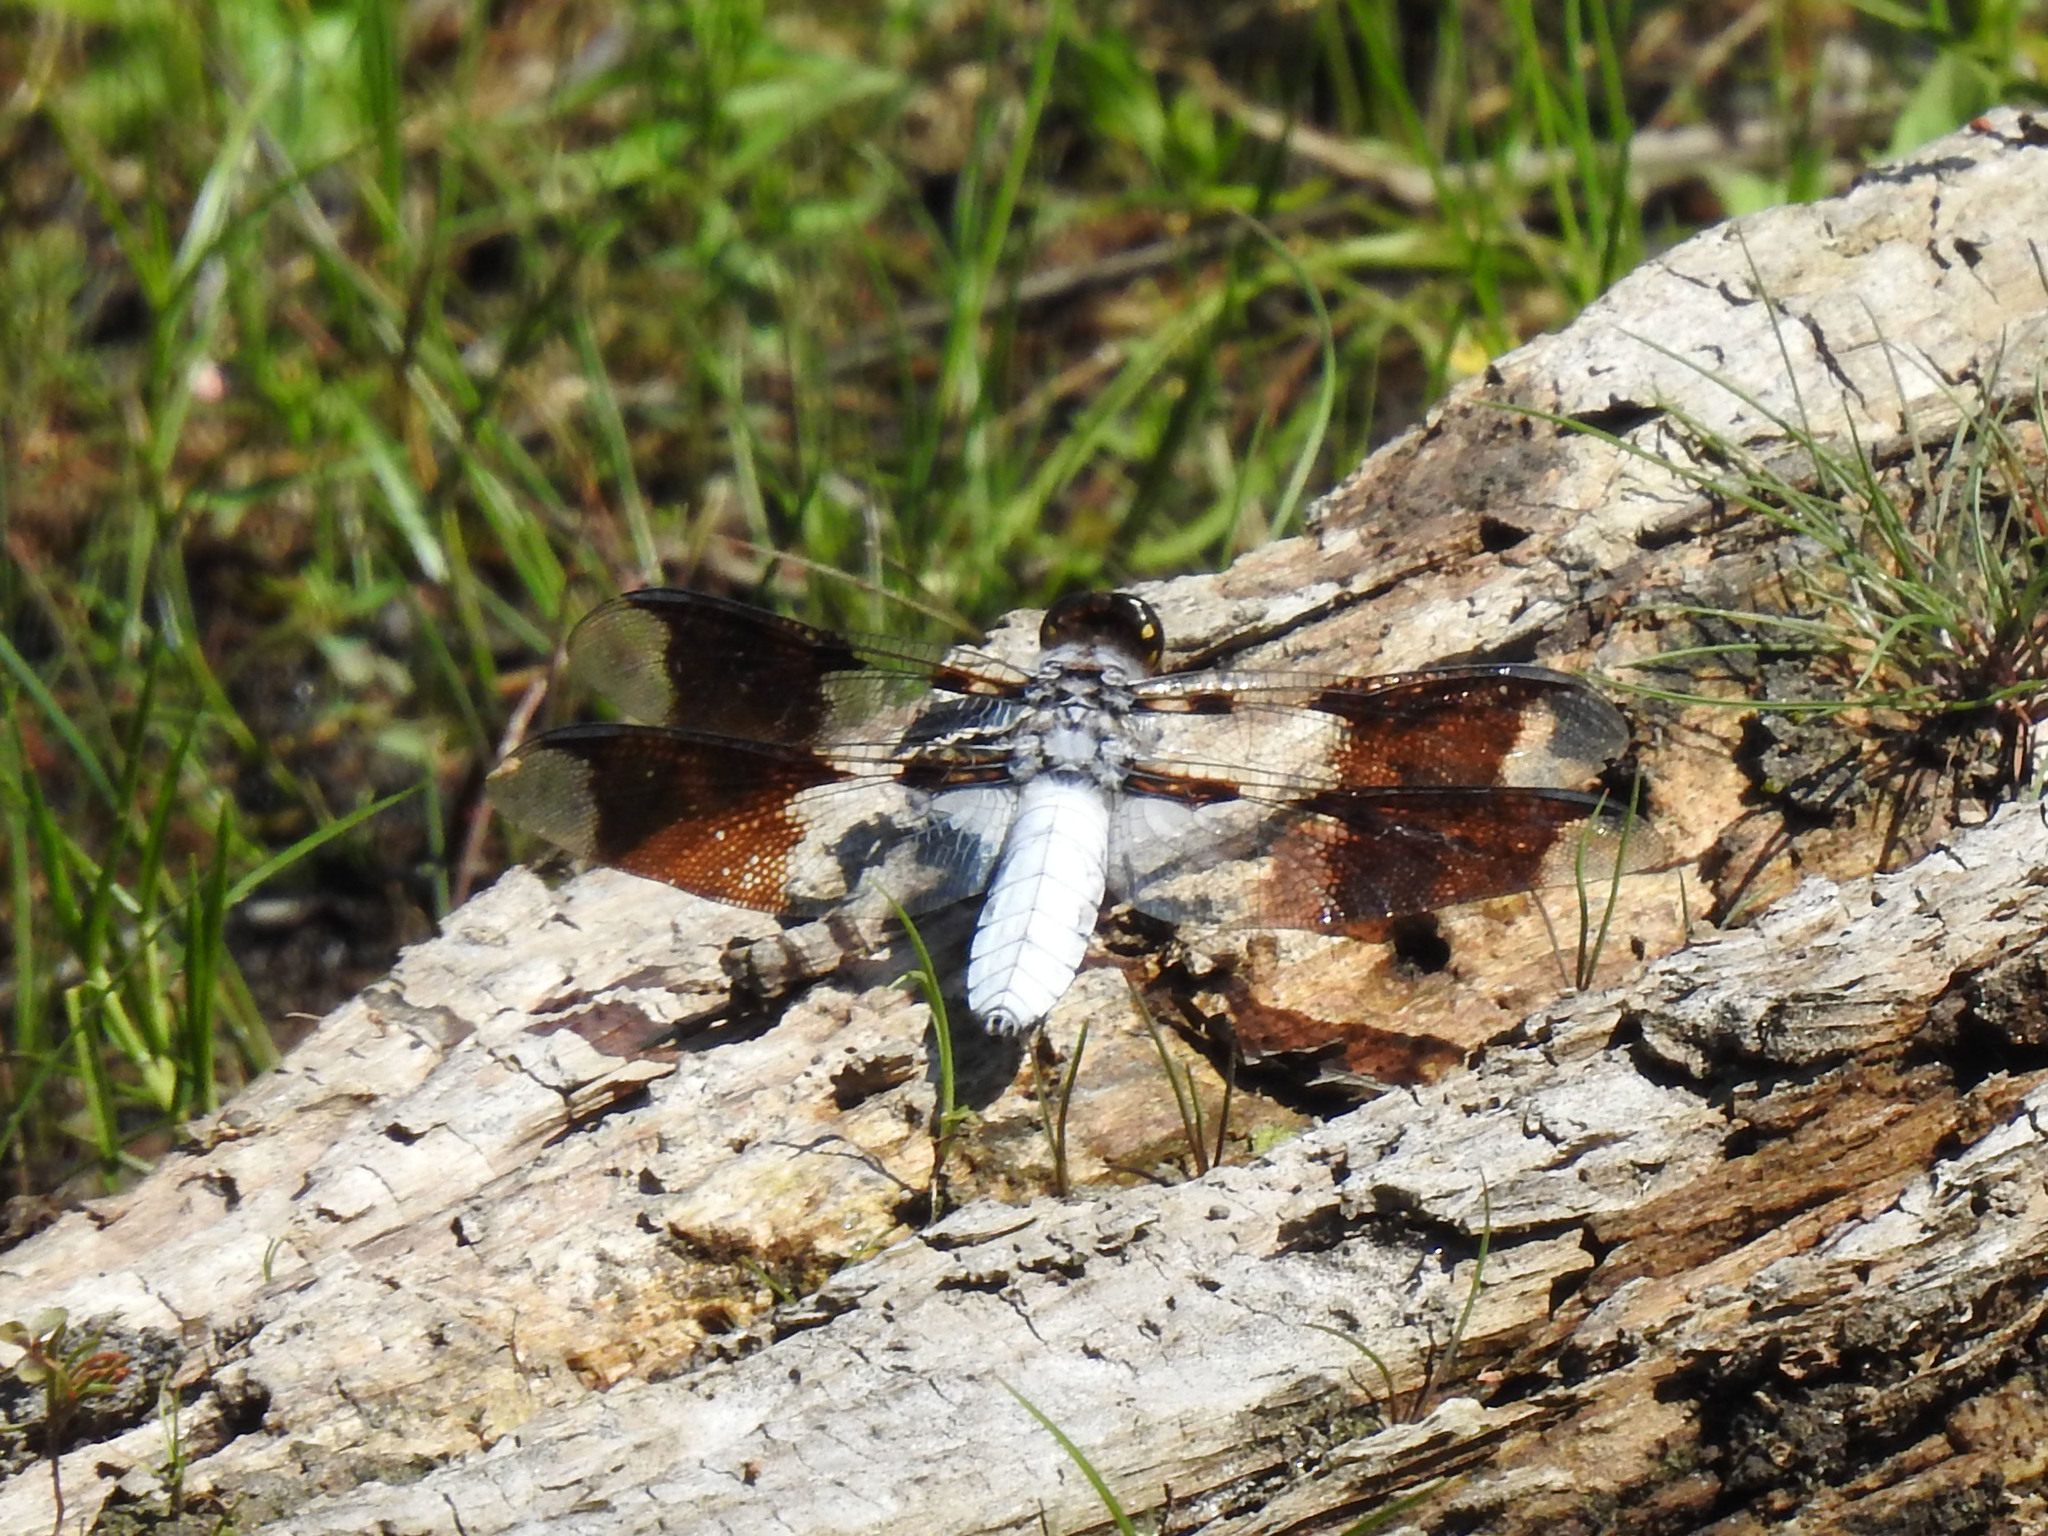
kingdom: Animalia
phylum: Arthropoda
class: Insecta
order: Odonata
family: Libellulidae
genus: Plathemis
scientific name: Plathemis lydia
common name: Common whitetail
